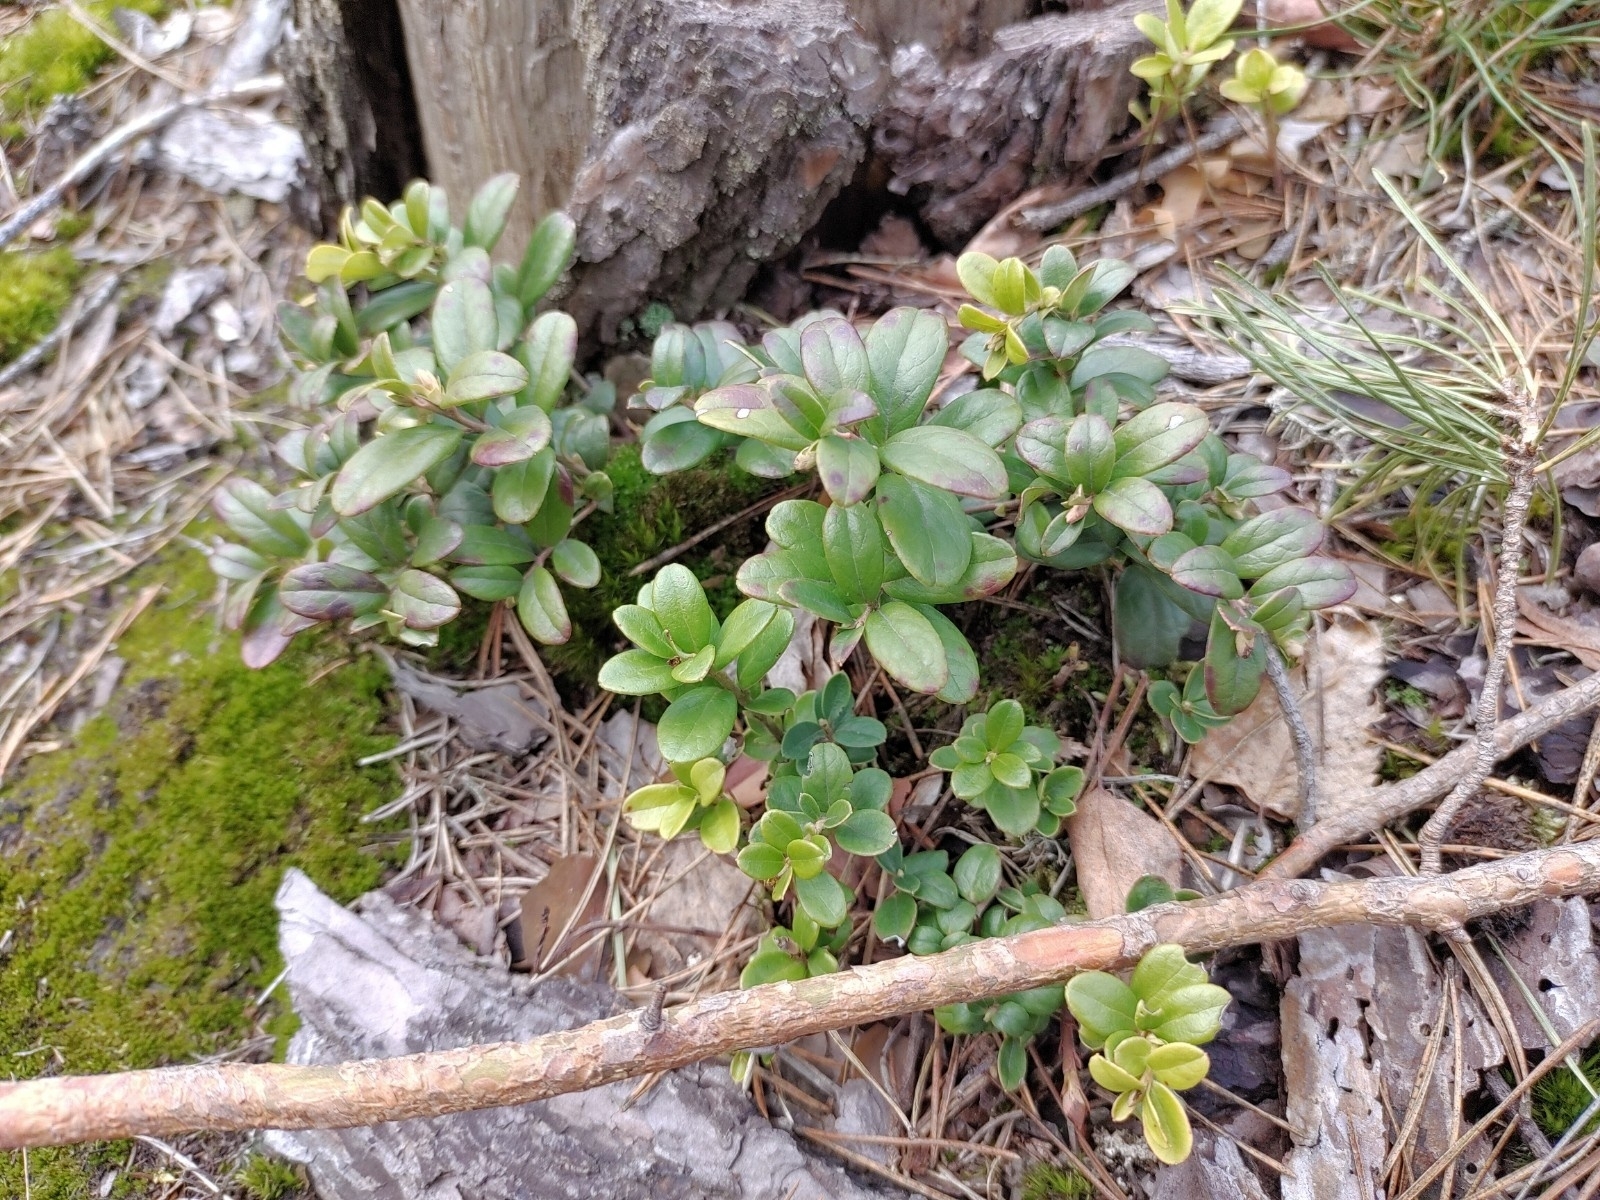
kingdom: Plantae
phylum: Tracheophyta
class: Magnoliopsida
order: Ericales
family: Ericaceae
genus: Vaccinium
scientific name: Vaccinium vitis-idaea
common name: Cowberry
